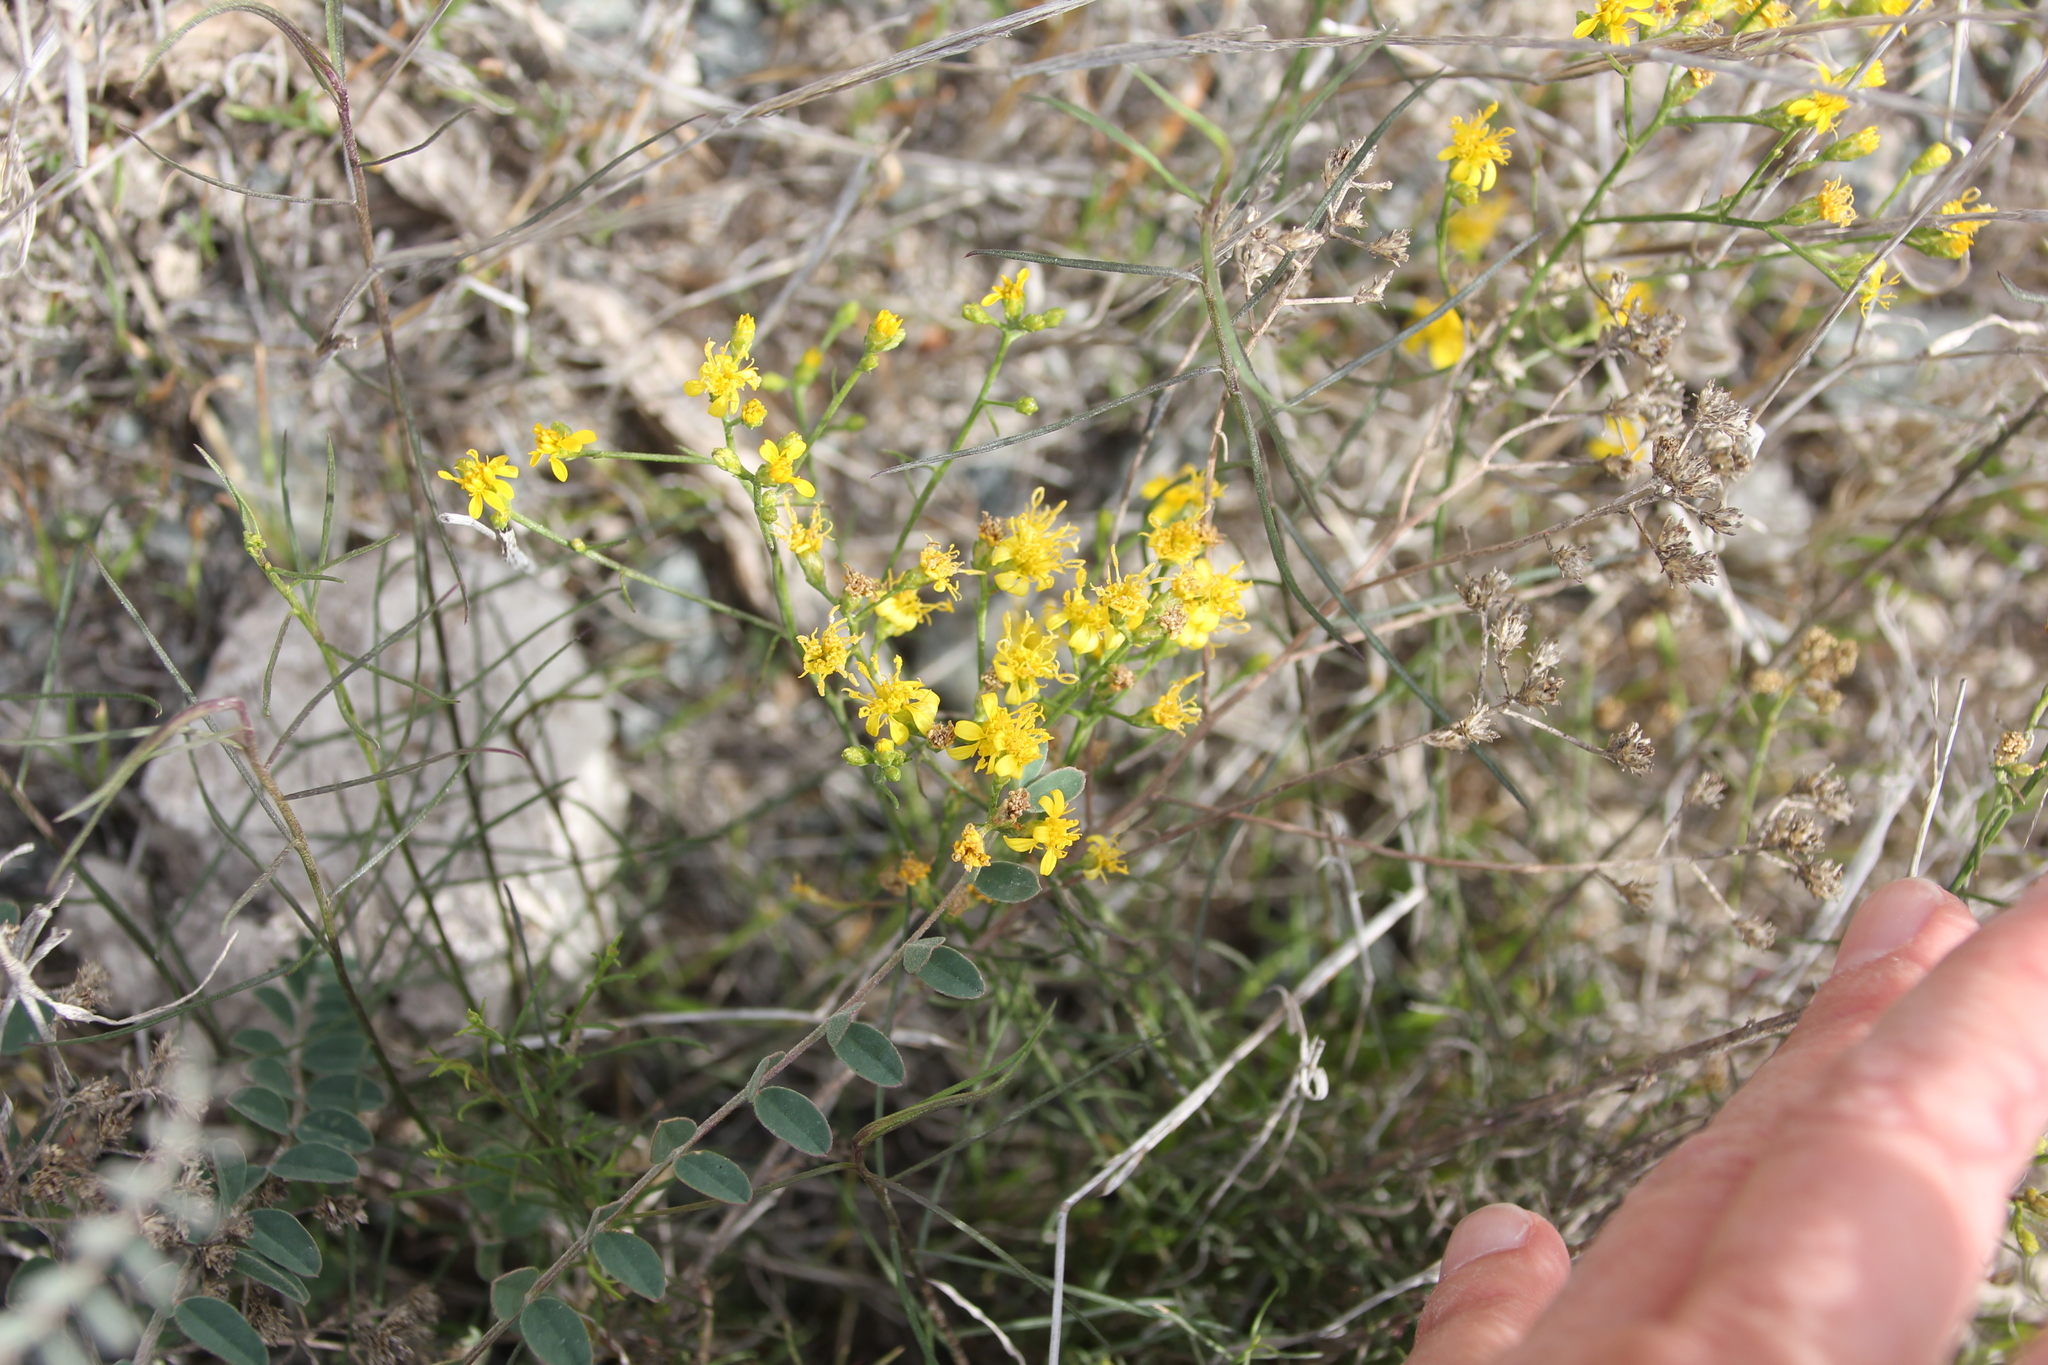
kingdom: Plantae
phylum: Tracheophyta
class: Magnoliopsida
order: Asterales
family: Asteraceae
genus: Gutierrezia
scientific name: Gutierrezia sarothrae
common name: Broom snakeweed
